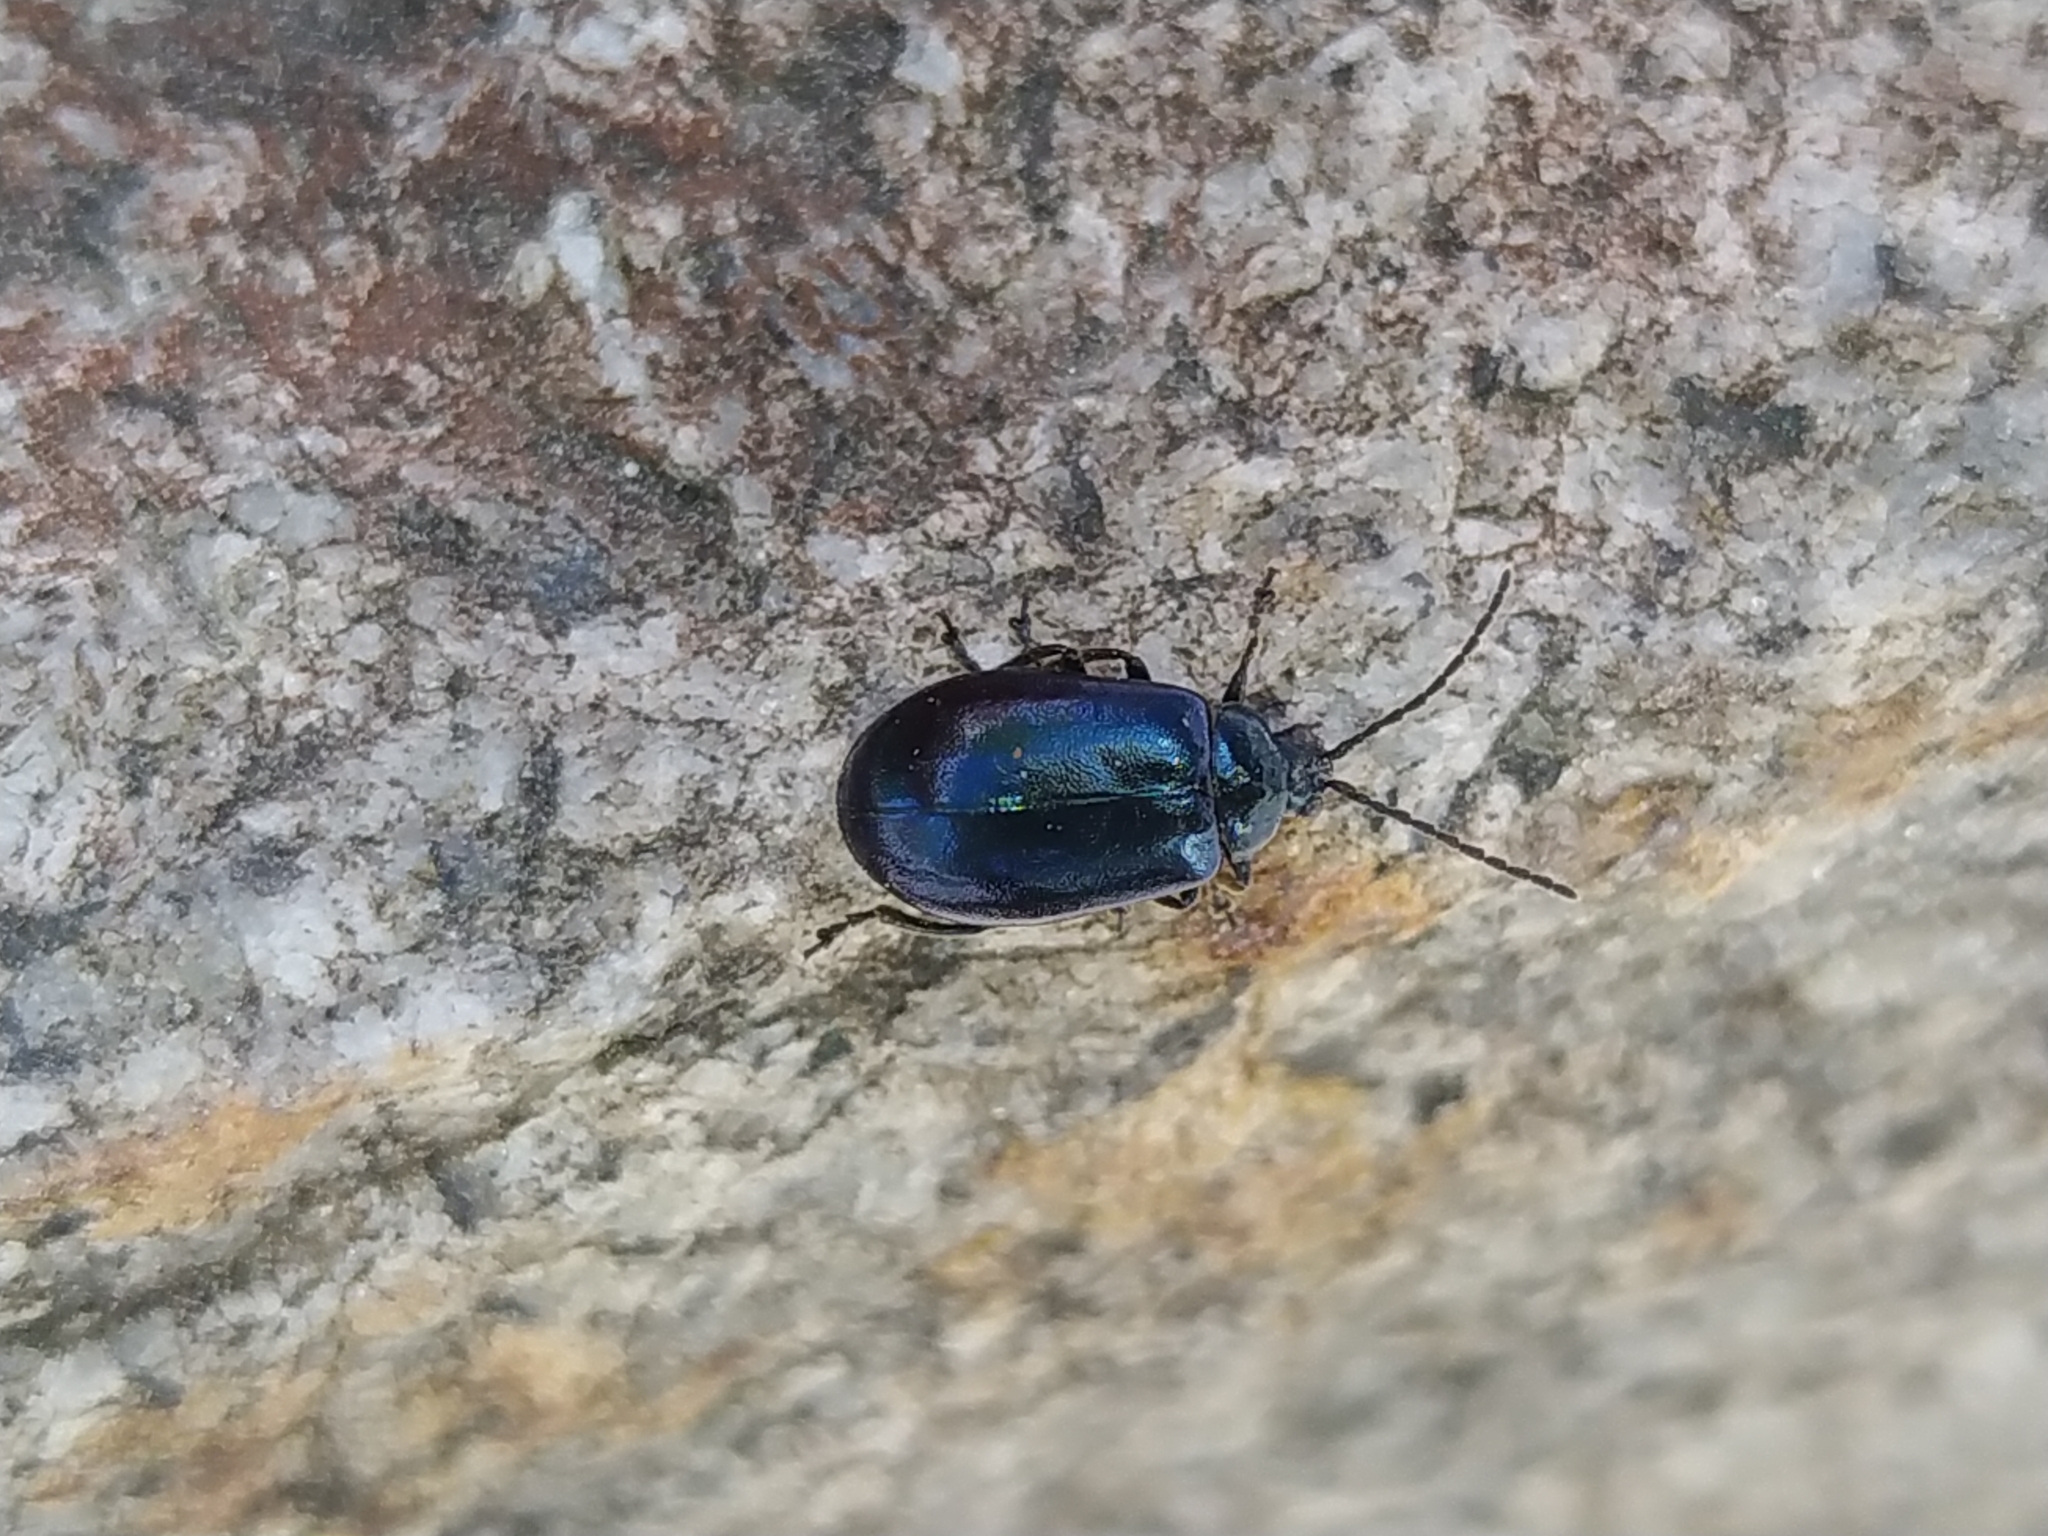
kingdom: Animalia
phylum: Arthropoda
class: Insecta
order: Coleoptera
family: Chrysomelidae
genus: Agelastica
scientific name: Agelastica alni
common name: Alder leaf beetle
